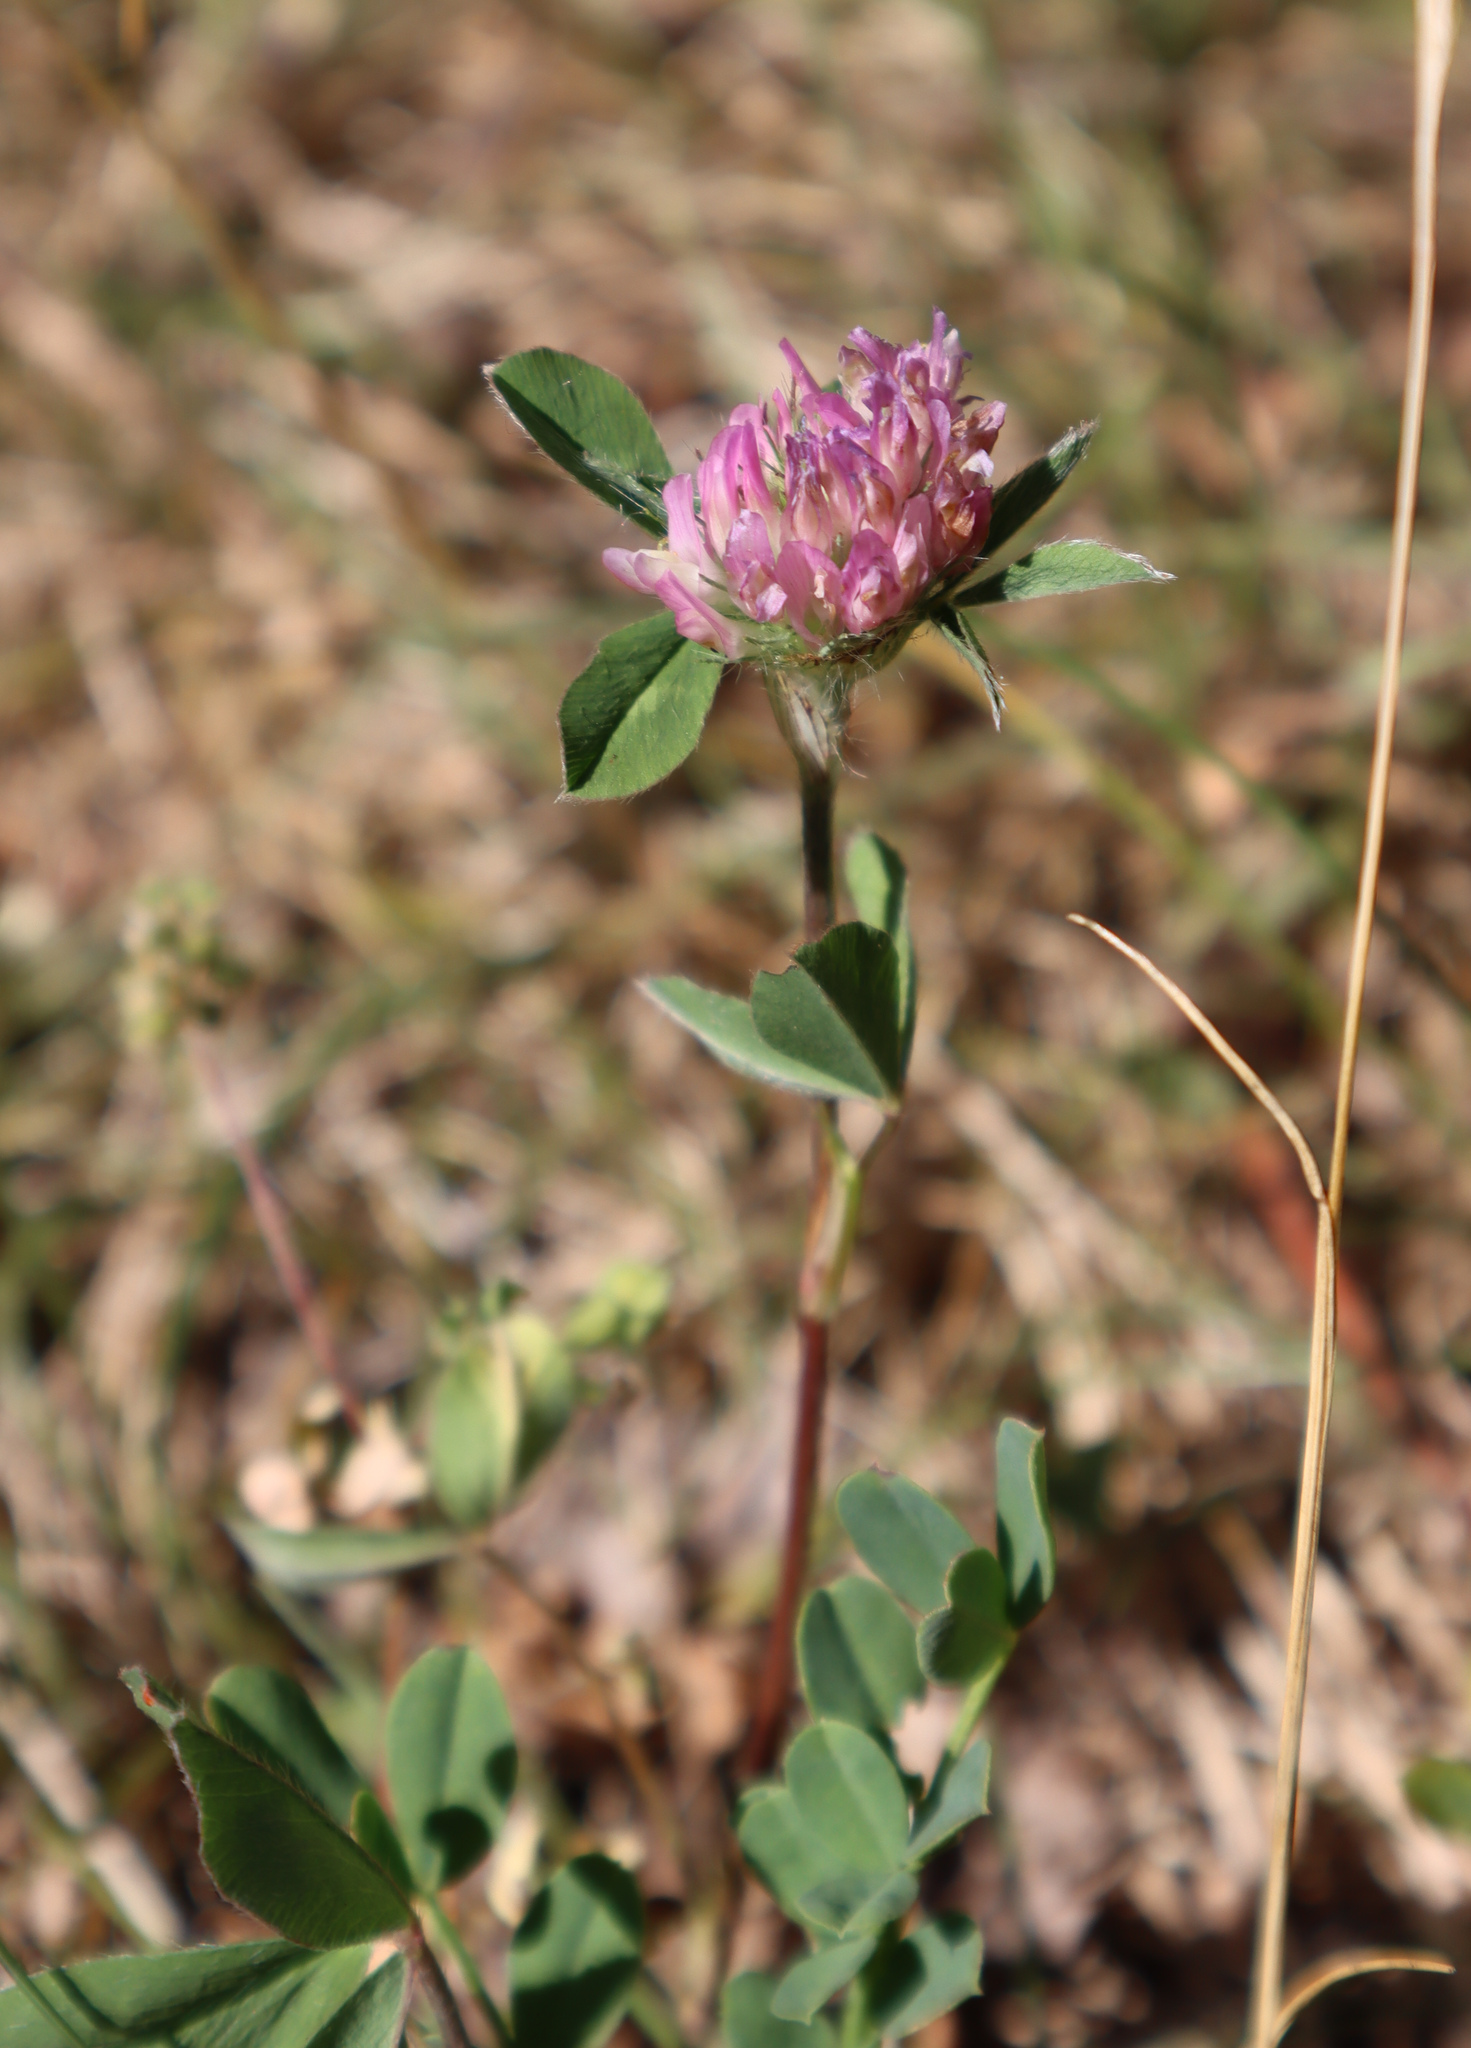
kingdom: Plantae
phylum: Tracheophyta
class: Magnoliopsida
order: Fabales
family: Fabaceae
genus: Trifolium
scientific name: Trifolium pratense
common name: Red clover
